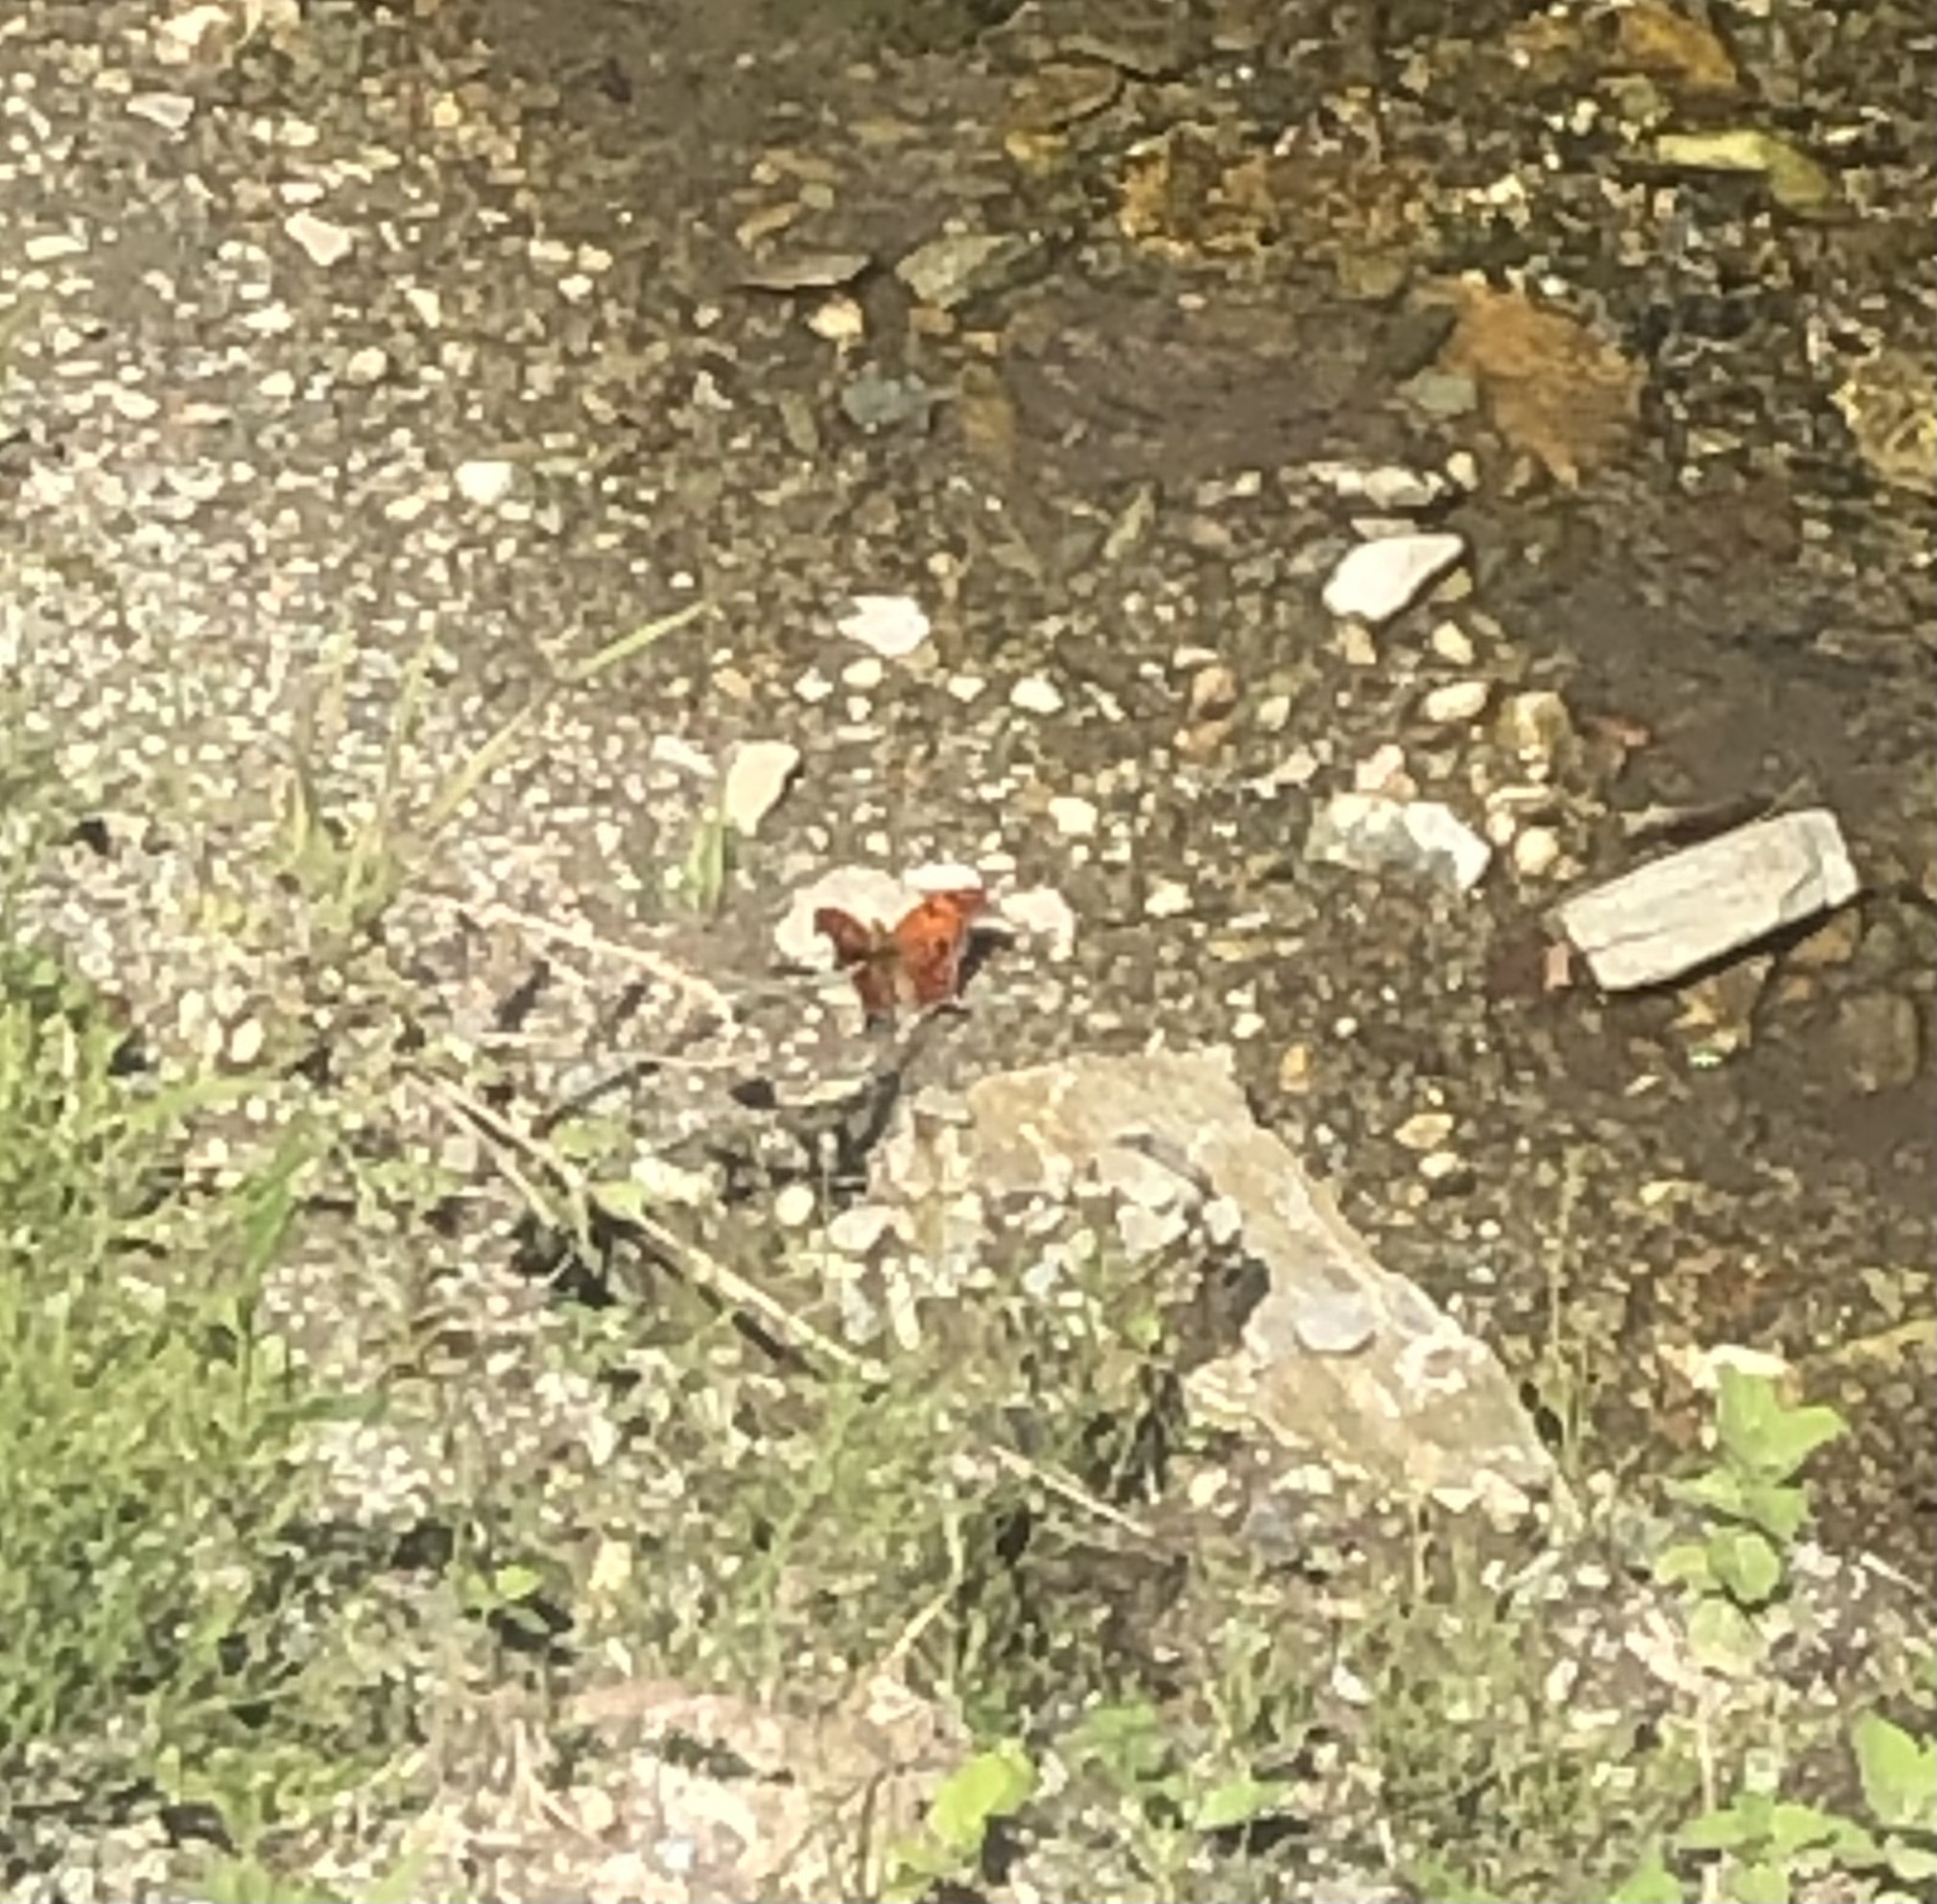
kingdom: Animalia
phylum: Arthropoda
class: Insecta
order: Lepidoptera
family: Nymphalidae
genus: Polygonia
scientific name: Polygonia interrogationis
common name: Question mark
